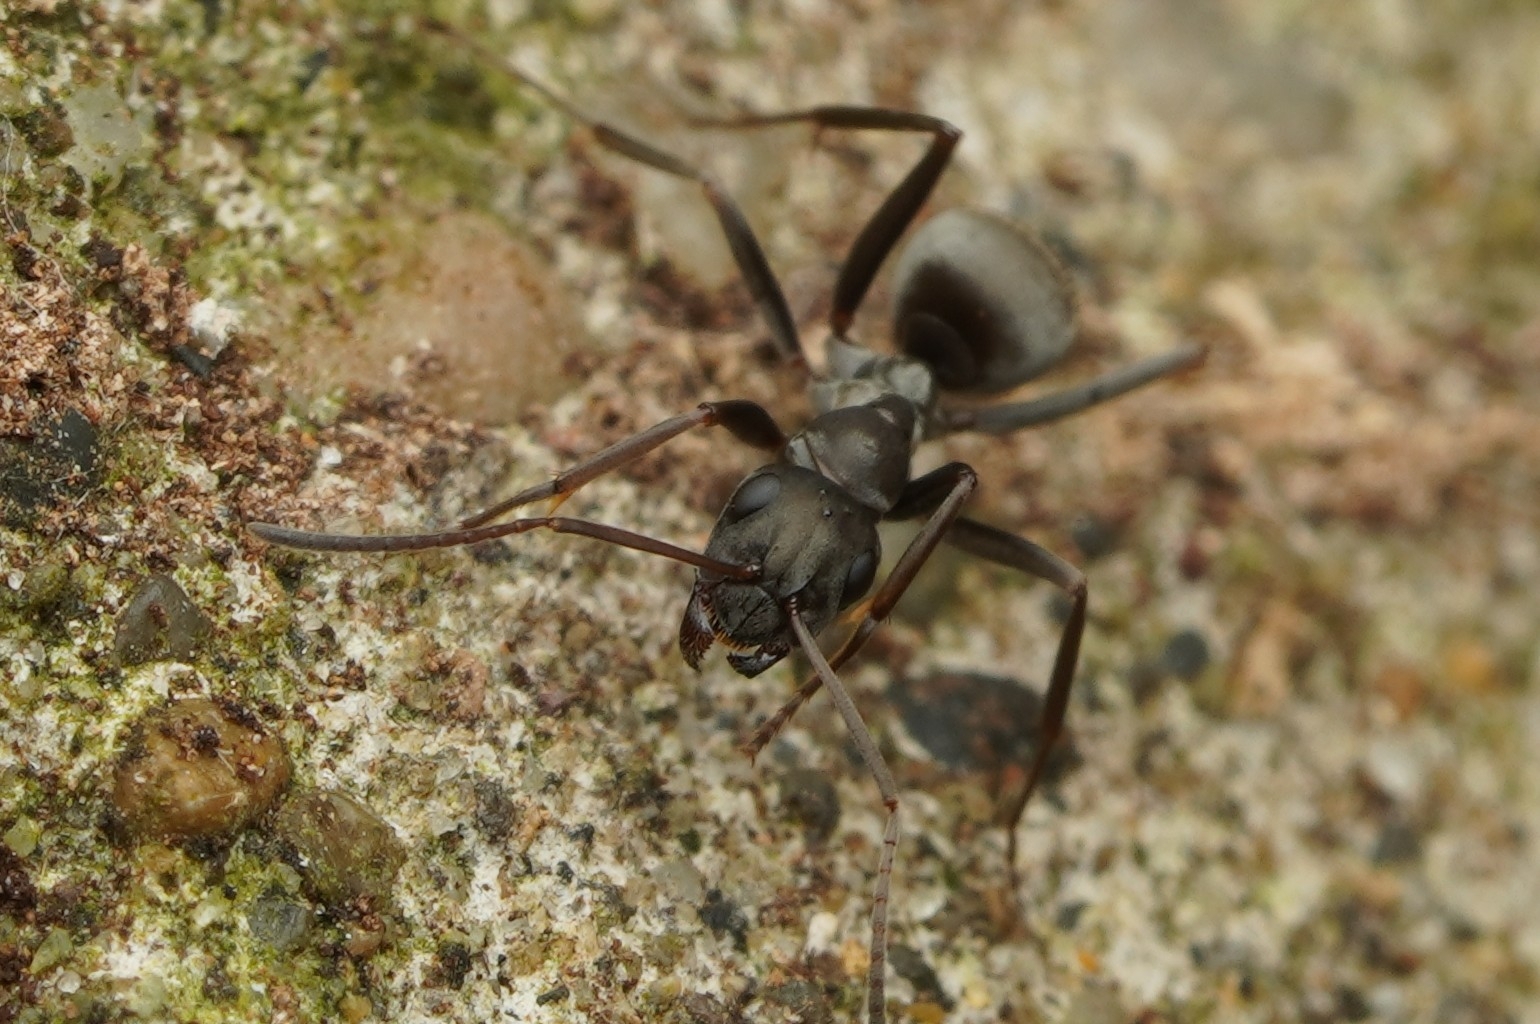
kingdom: Animalia
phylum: Arthropoda
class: Insecta
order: Hymenoptera
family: Formicidae
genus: Formica
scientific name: Formica japonica
